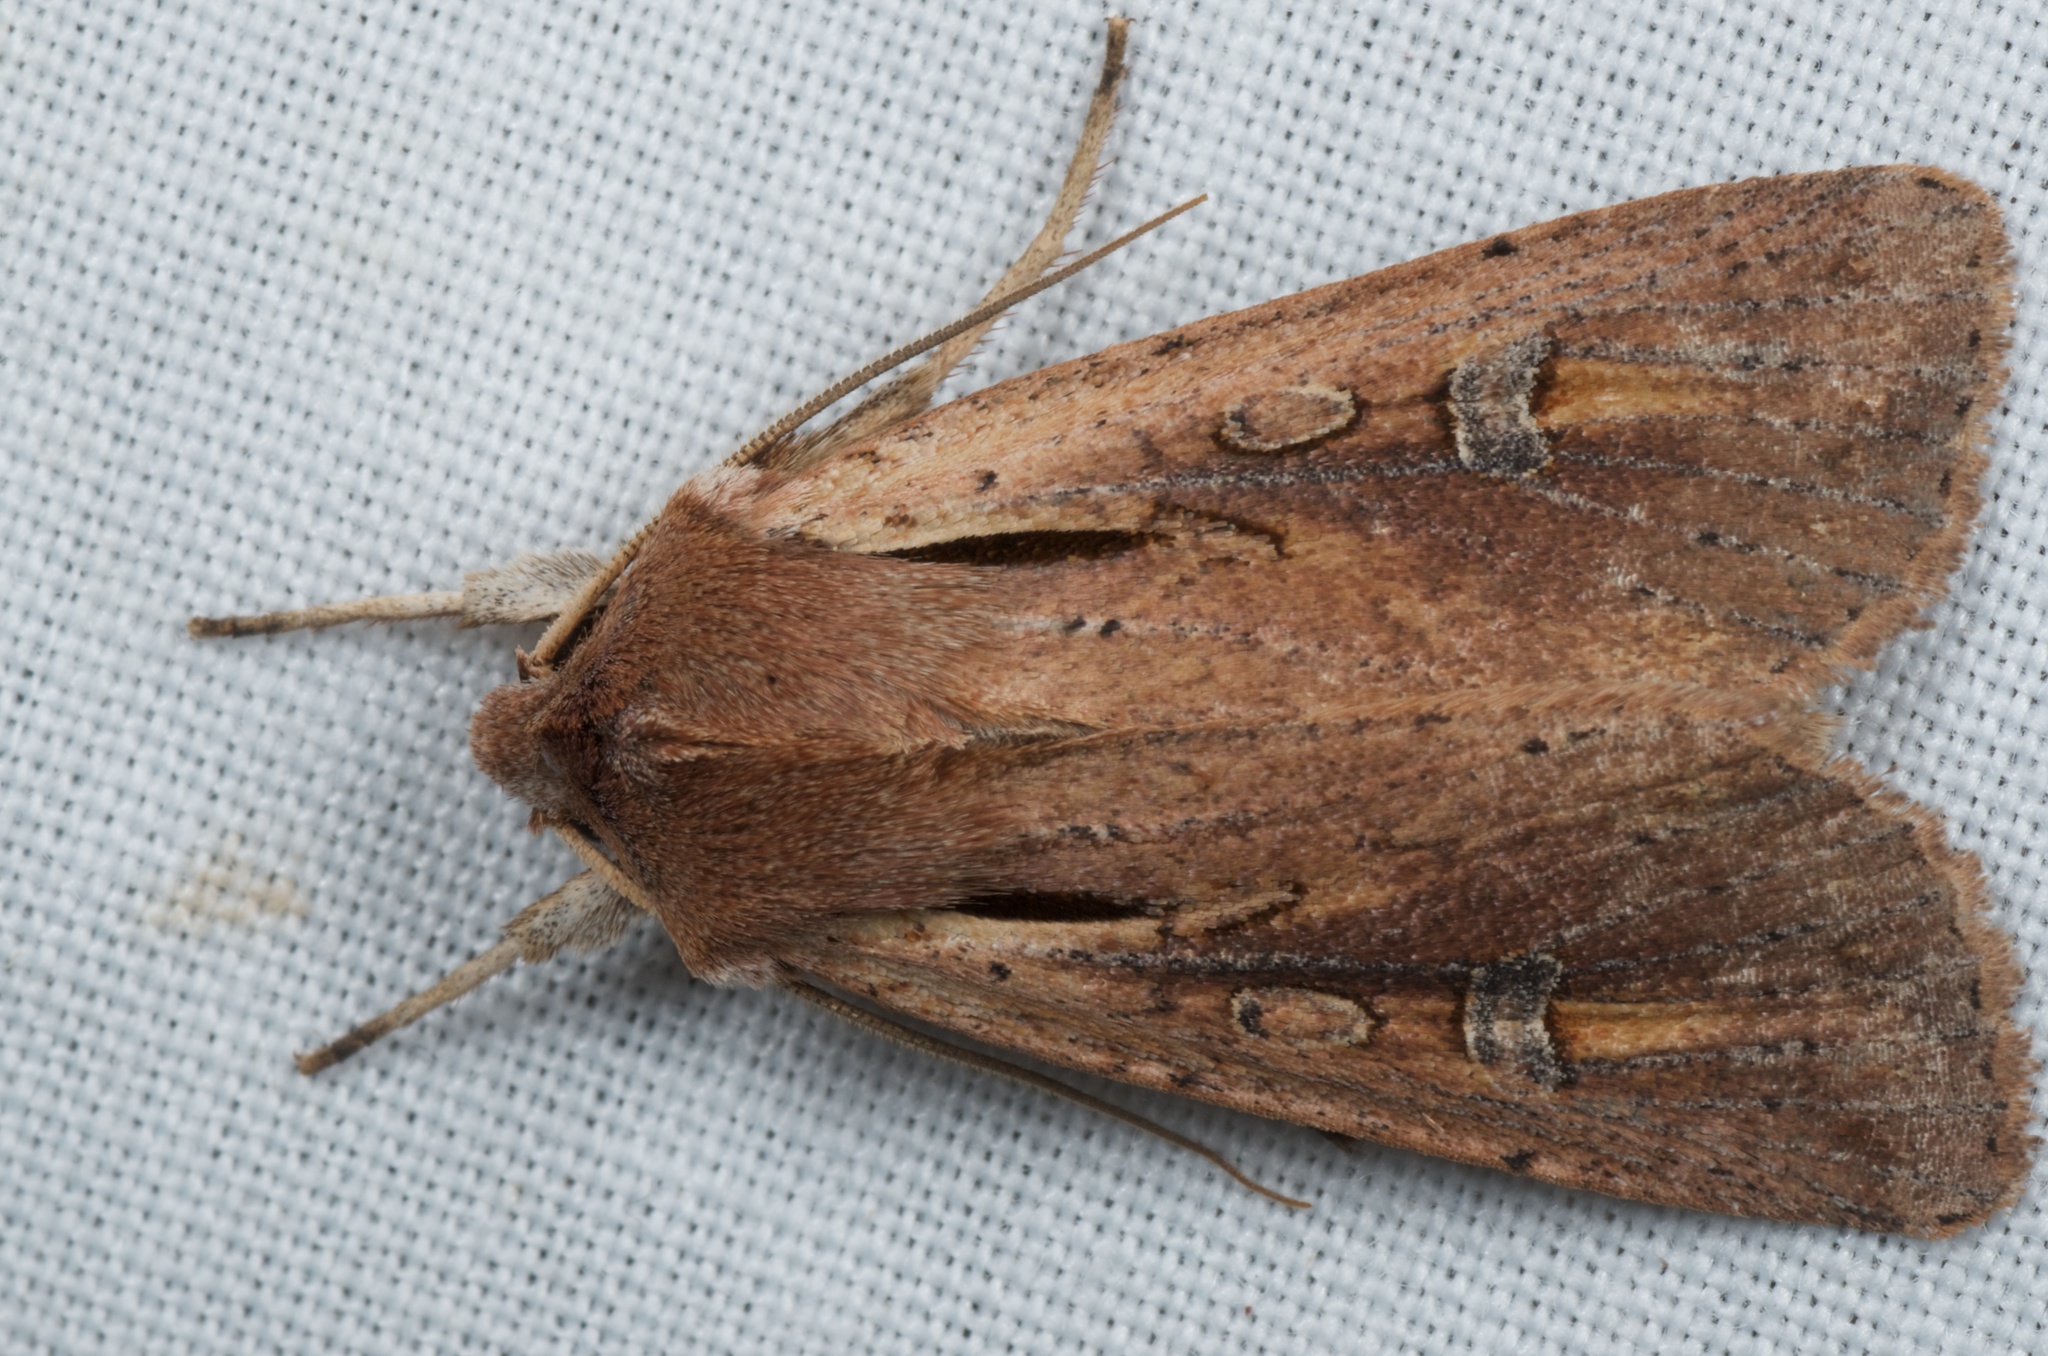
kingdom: Animalia
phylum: Arthropoda
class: Insecta
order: Lepidoptera
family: Noctuidae
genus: Ichneutica
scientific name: Ichneutica atristriga
